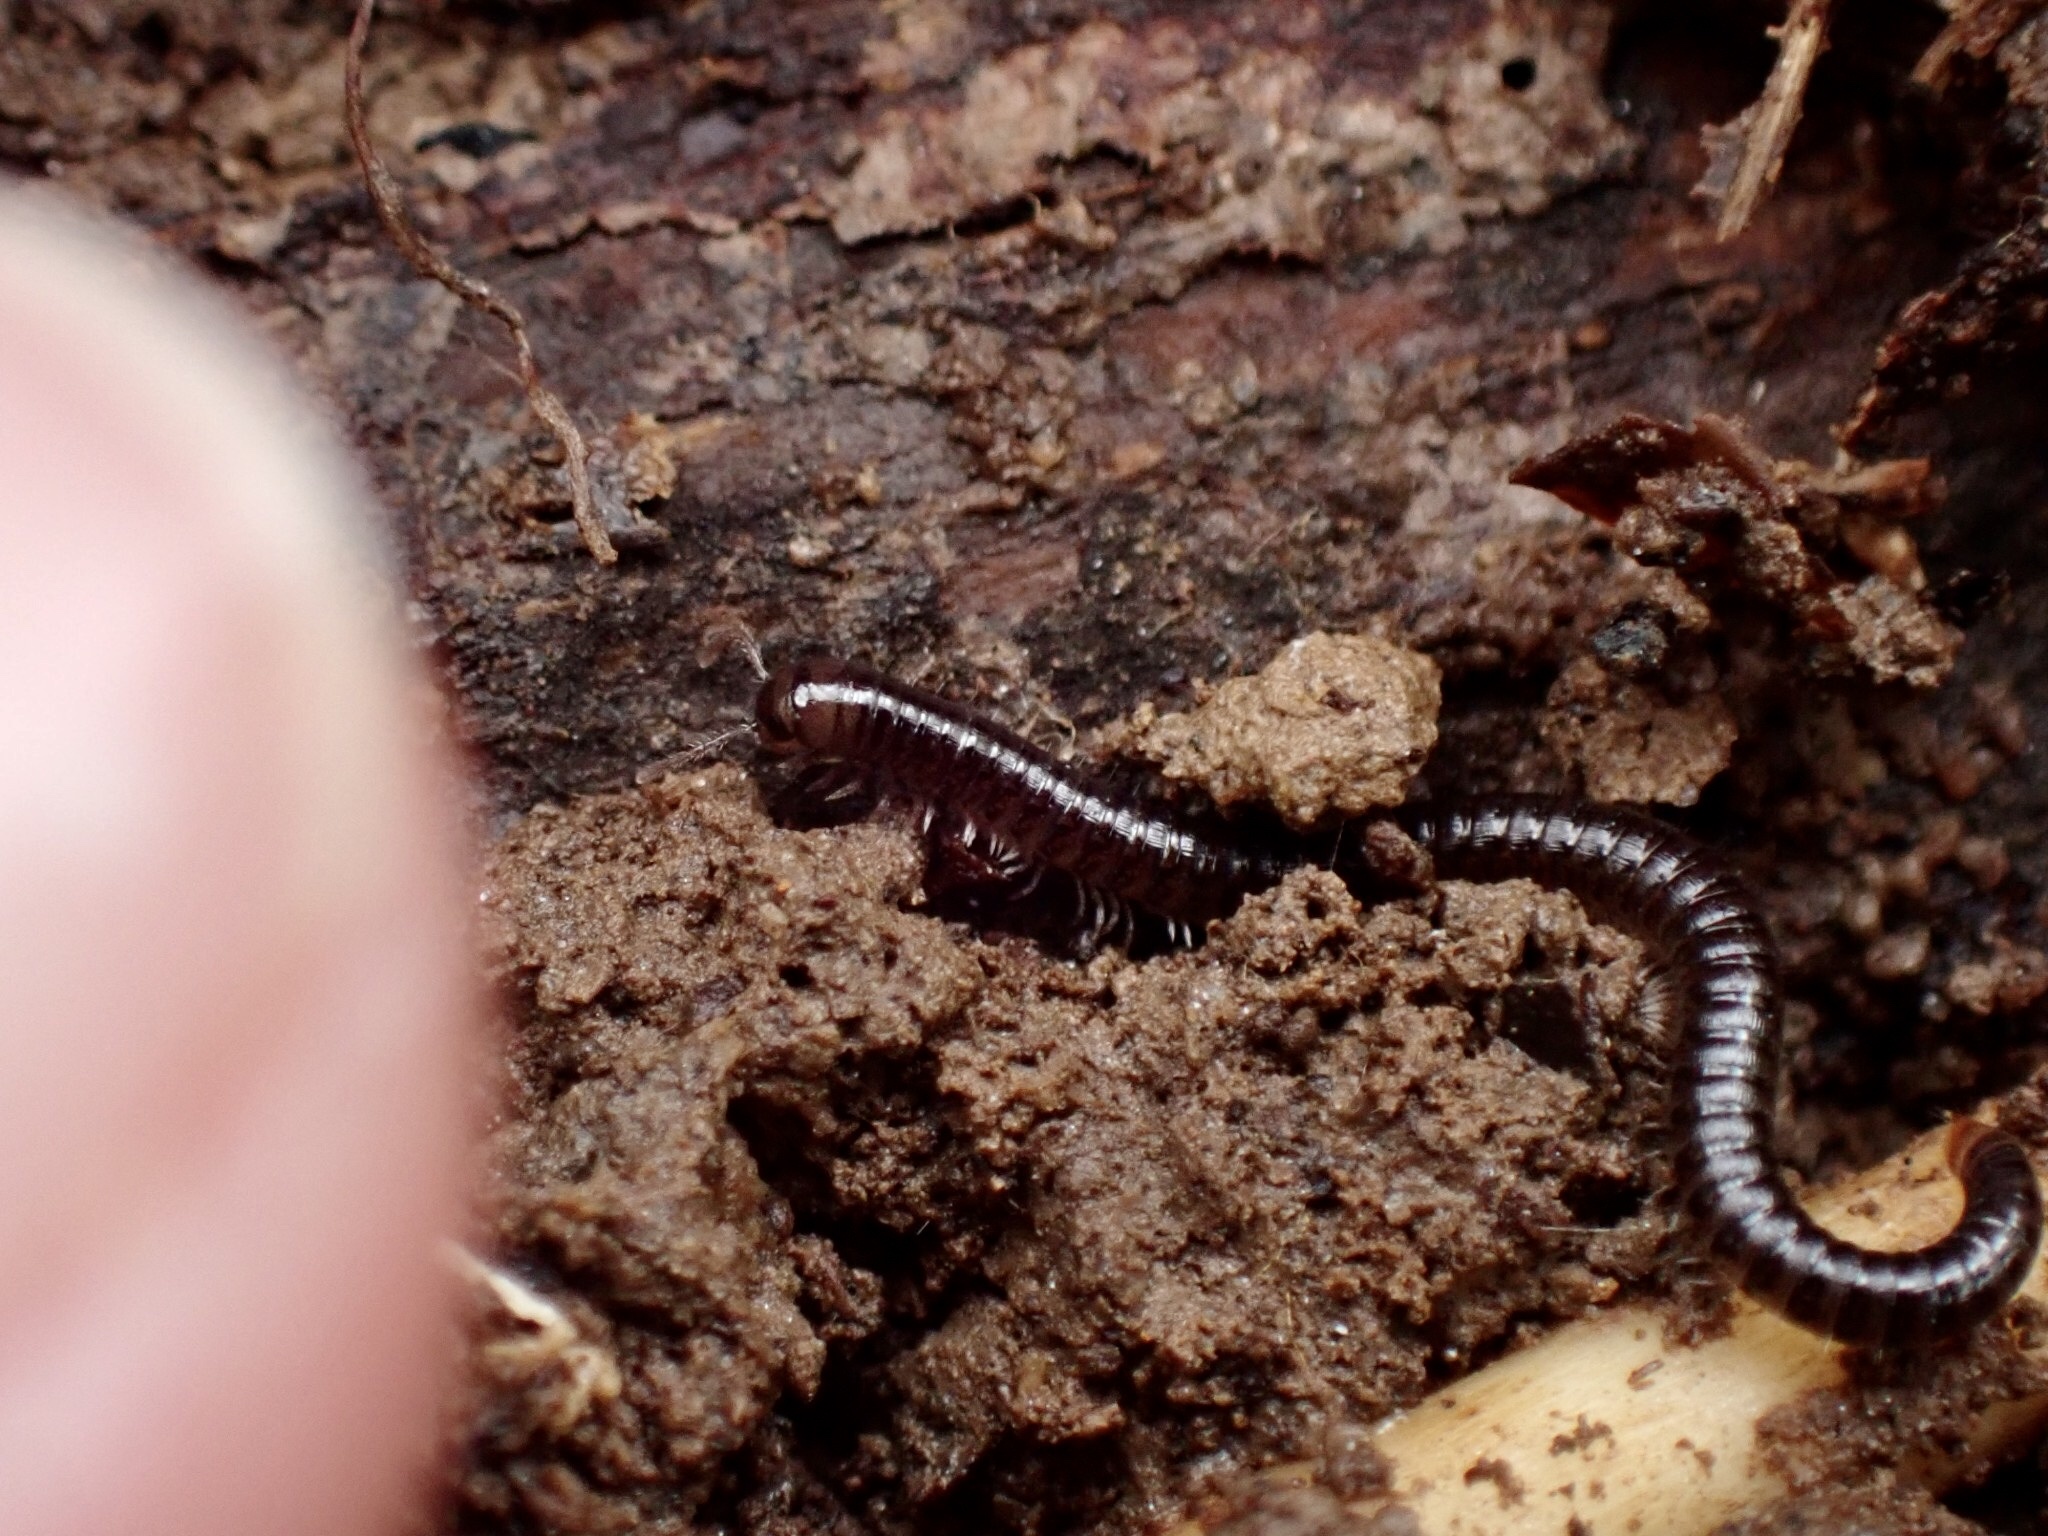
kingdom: Animalia
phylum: Arthropoda
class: Diplopoda
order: Julida
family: Julidae
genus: Ophyiulus
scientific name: Ophyiulus pilosus
